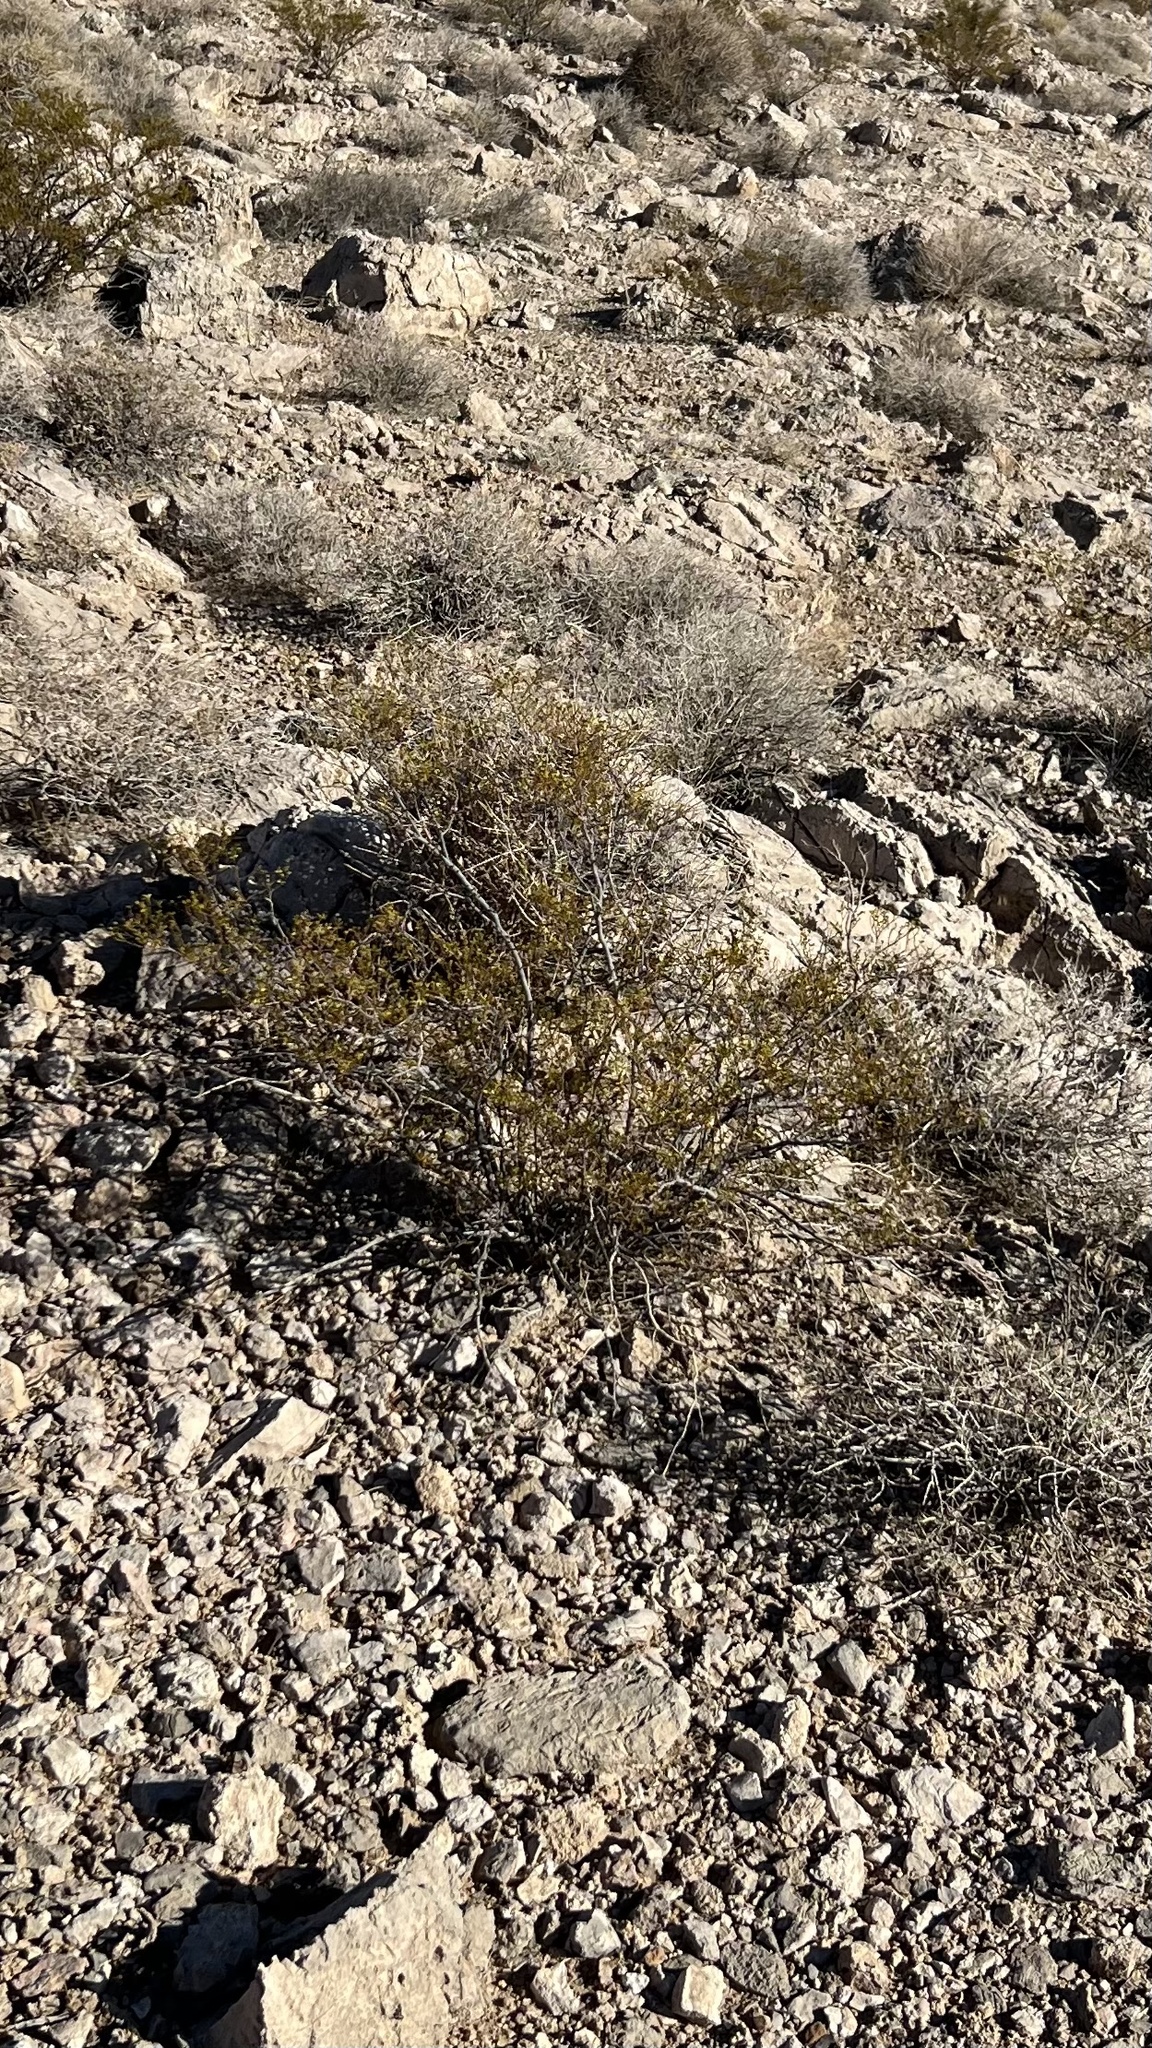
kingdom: Plantae
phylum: Tracheophyta
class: Magnoliopsida
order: Zygophyllales
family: Zygophyllaceae
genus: Larrea
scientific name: Larrea tridentata
